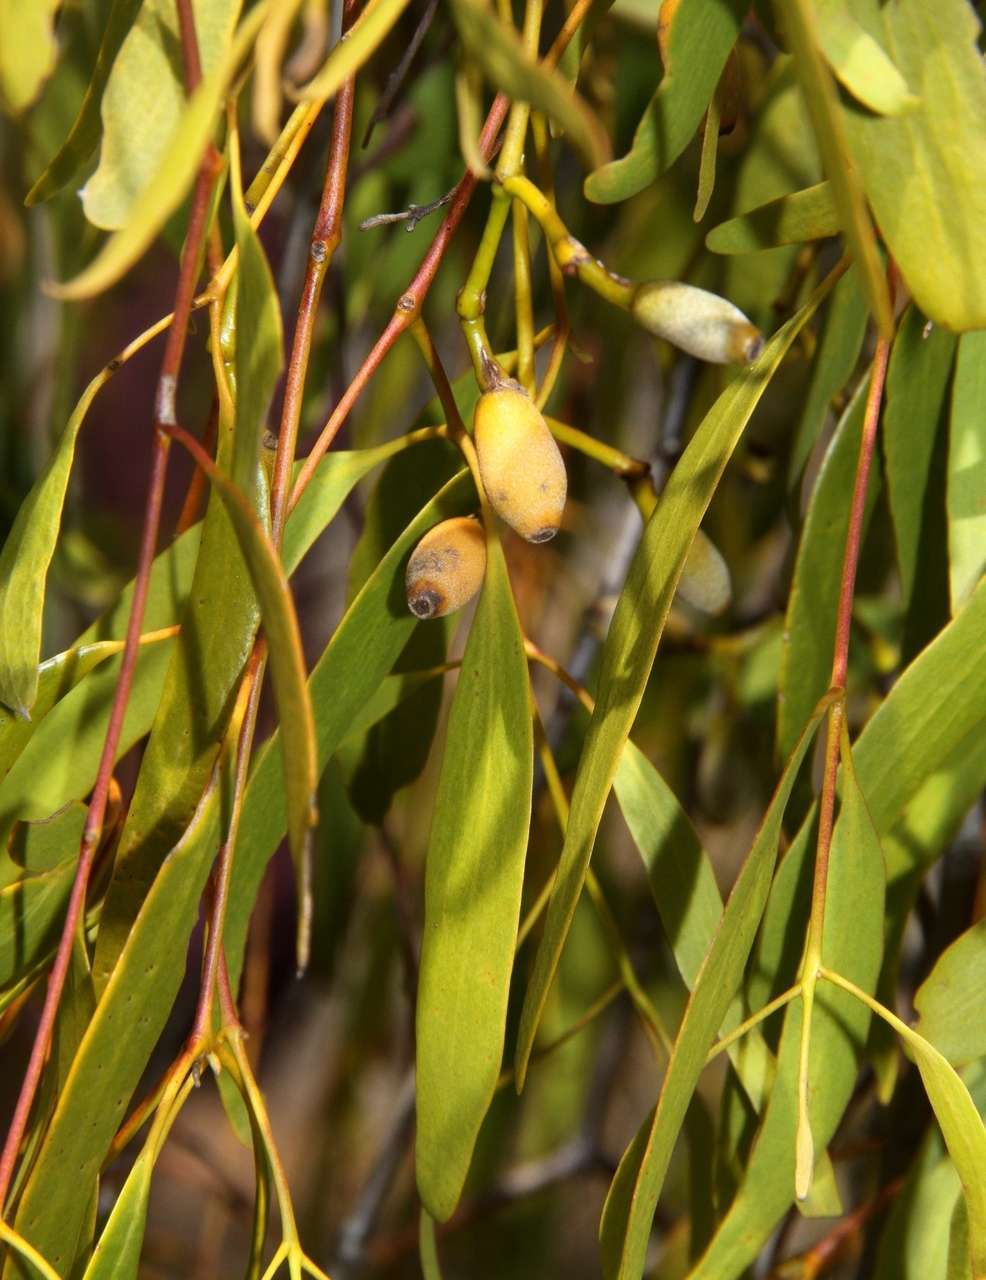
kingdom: Plantae
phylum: Tracheophyta
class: Magnoliopsida
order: Santalales
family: Loranthaceae
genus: Amyema
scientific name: Amyema miquelii
